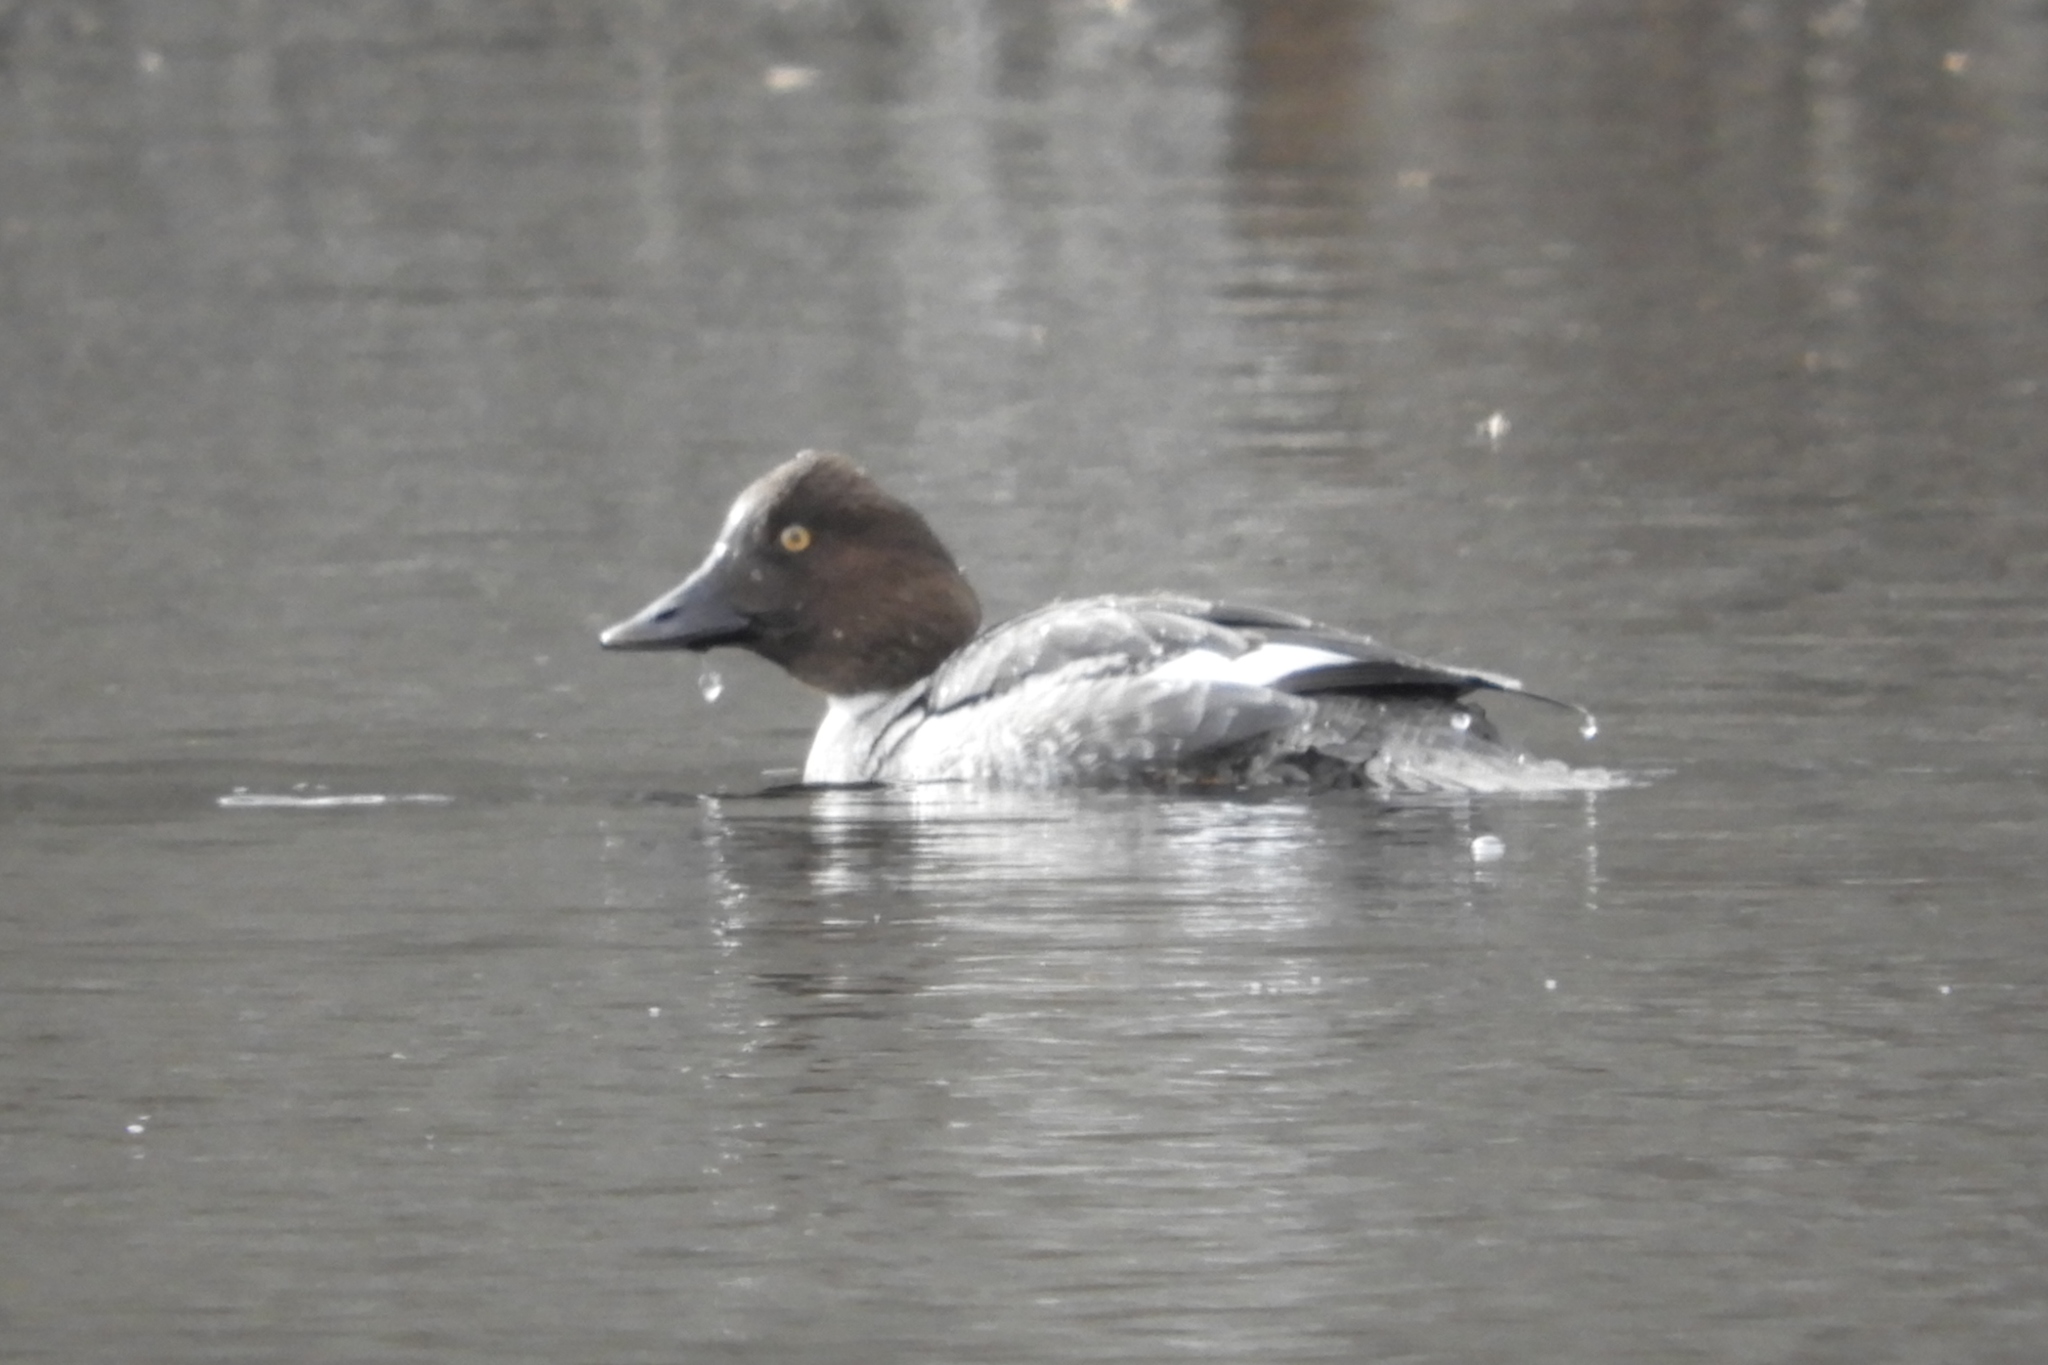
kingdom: Animalia
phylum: Chordata
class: Aves
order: Anseriformes
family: Anatidae
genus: Bucephala
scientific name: Bucephala clangula
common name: Common goldeneye
